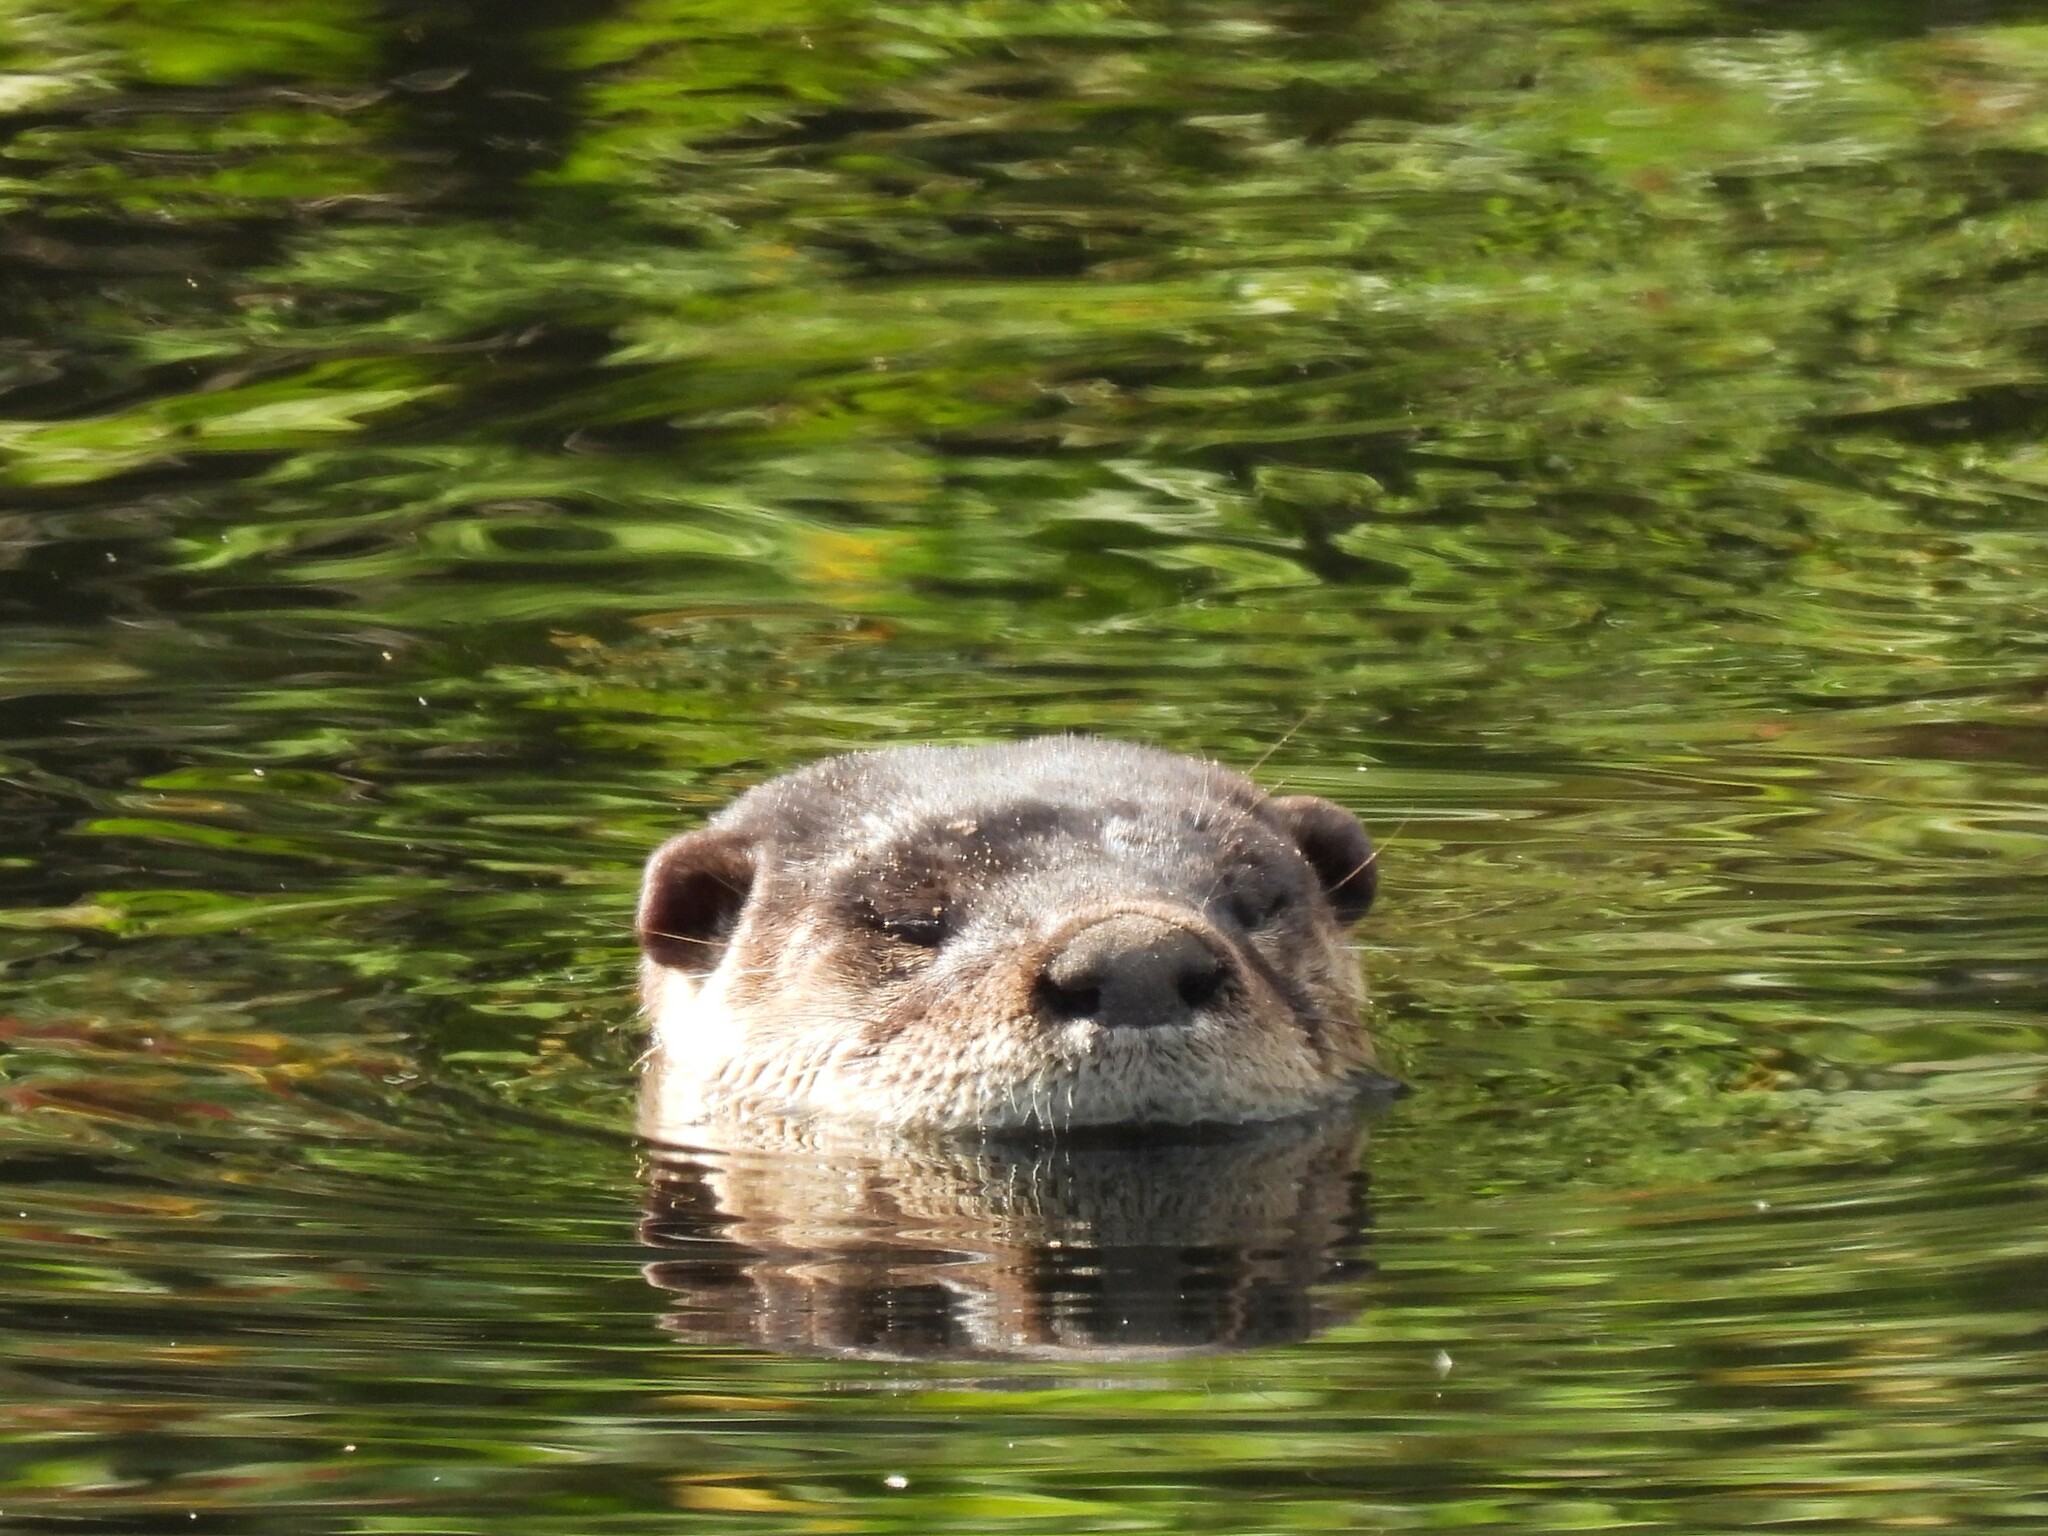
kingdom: Animalia
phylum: Chordata
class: Mammalia
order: Carnivora
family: Mustelidae
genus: Lontra
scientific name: Lontra canadensis
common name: North american river otter
